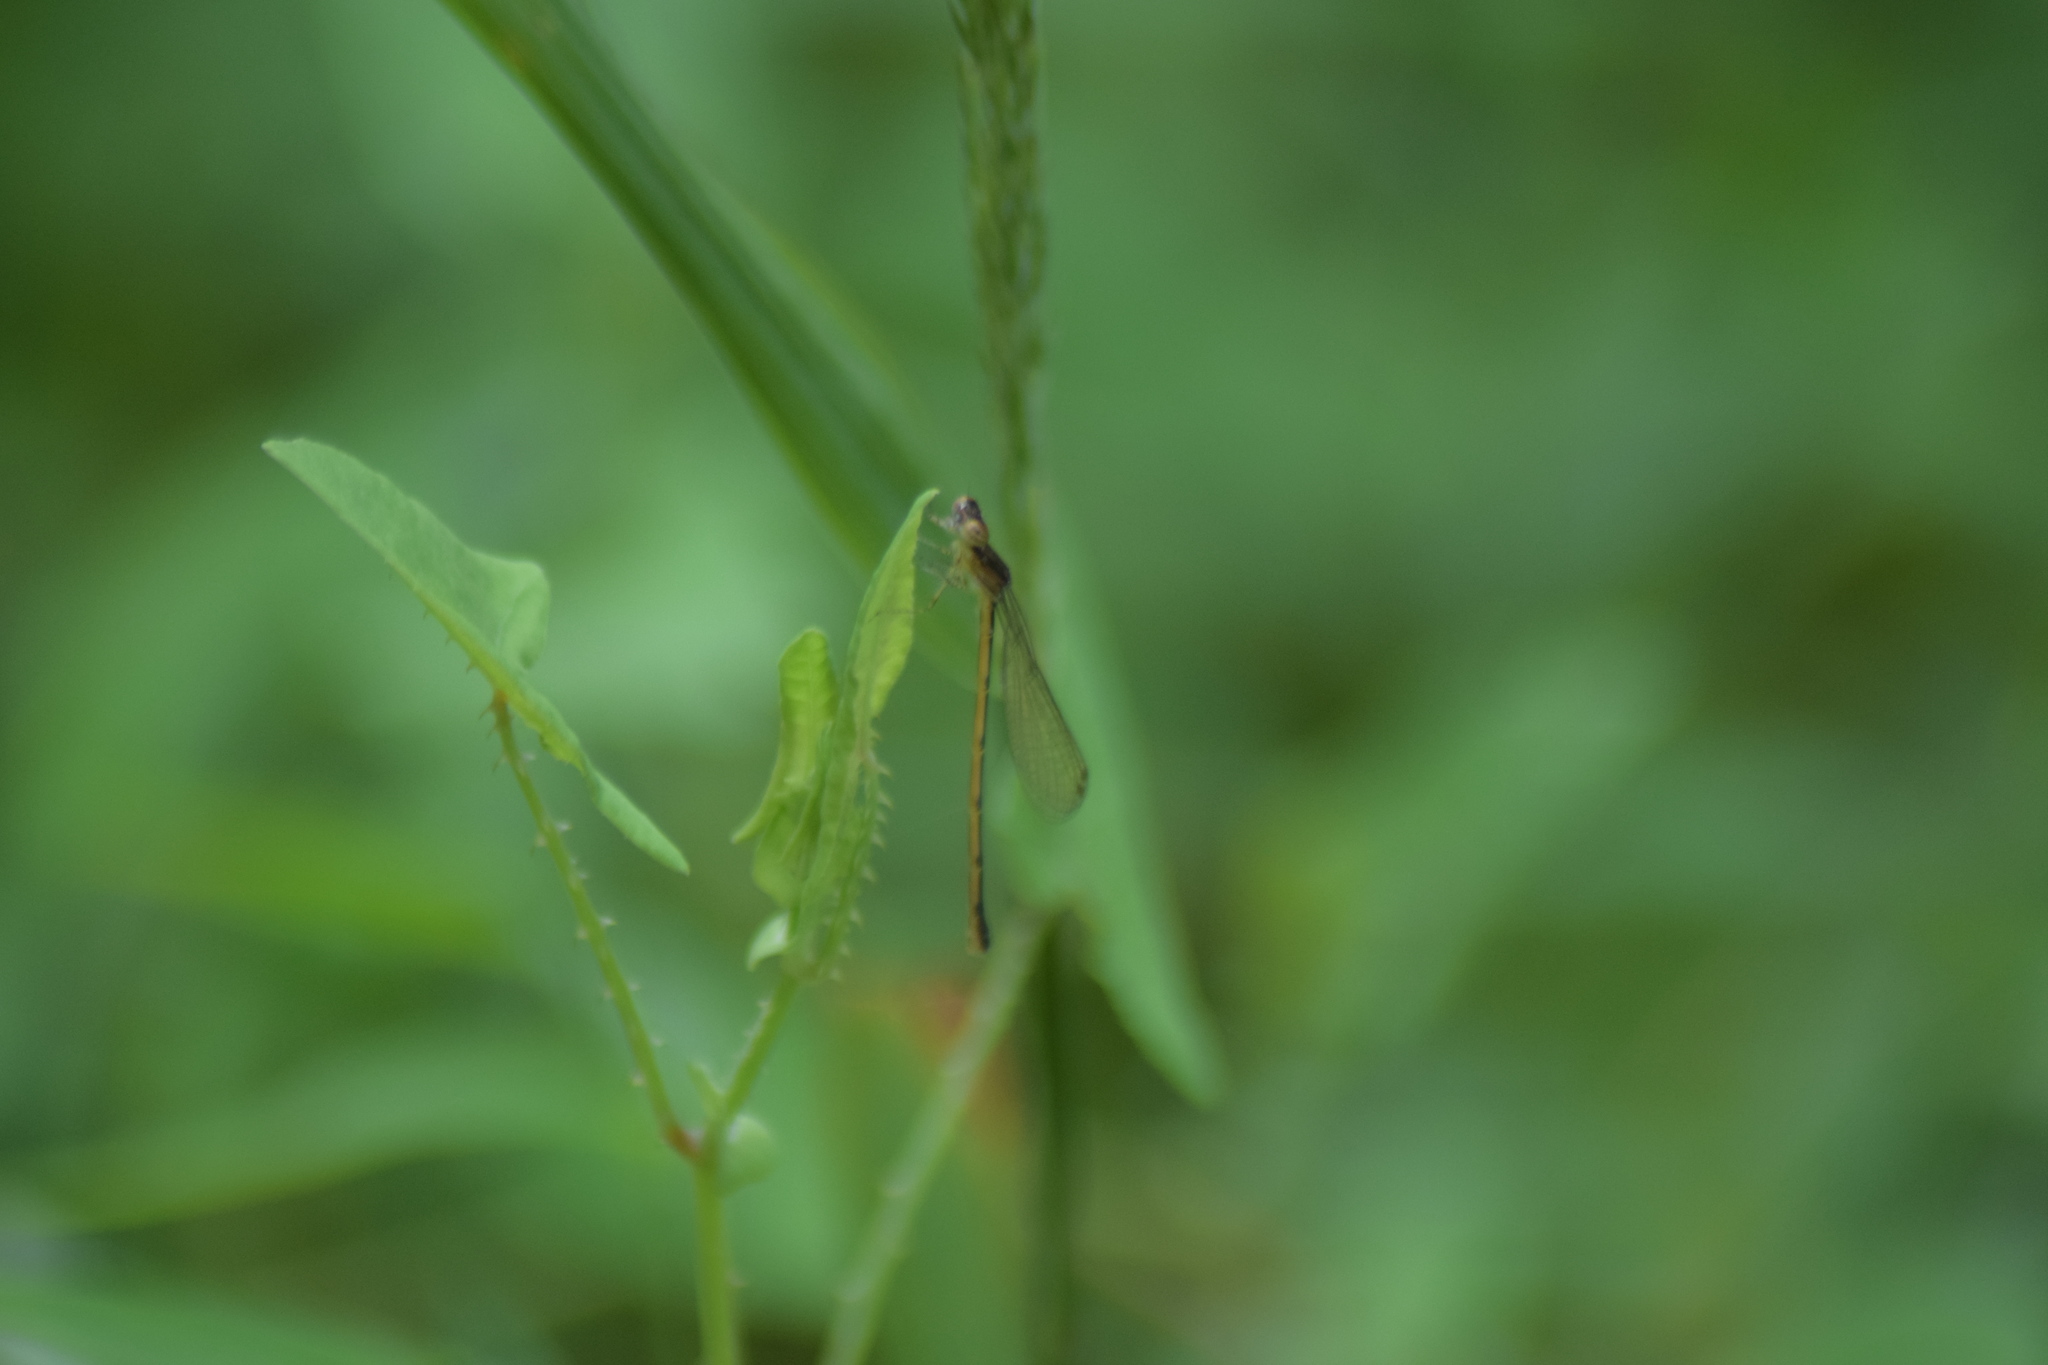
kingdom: Animalia
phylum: Arthropoda
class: Insecta
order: Odonata
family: Coenagrionidae
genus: Ischnura
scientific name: Ischnura posita
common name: Fragile forktail
